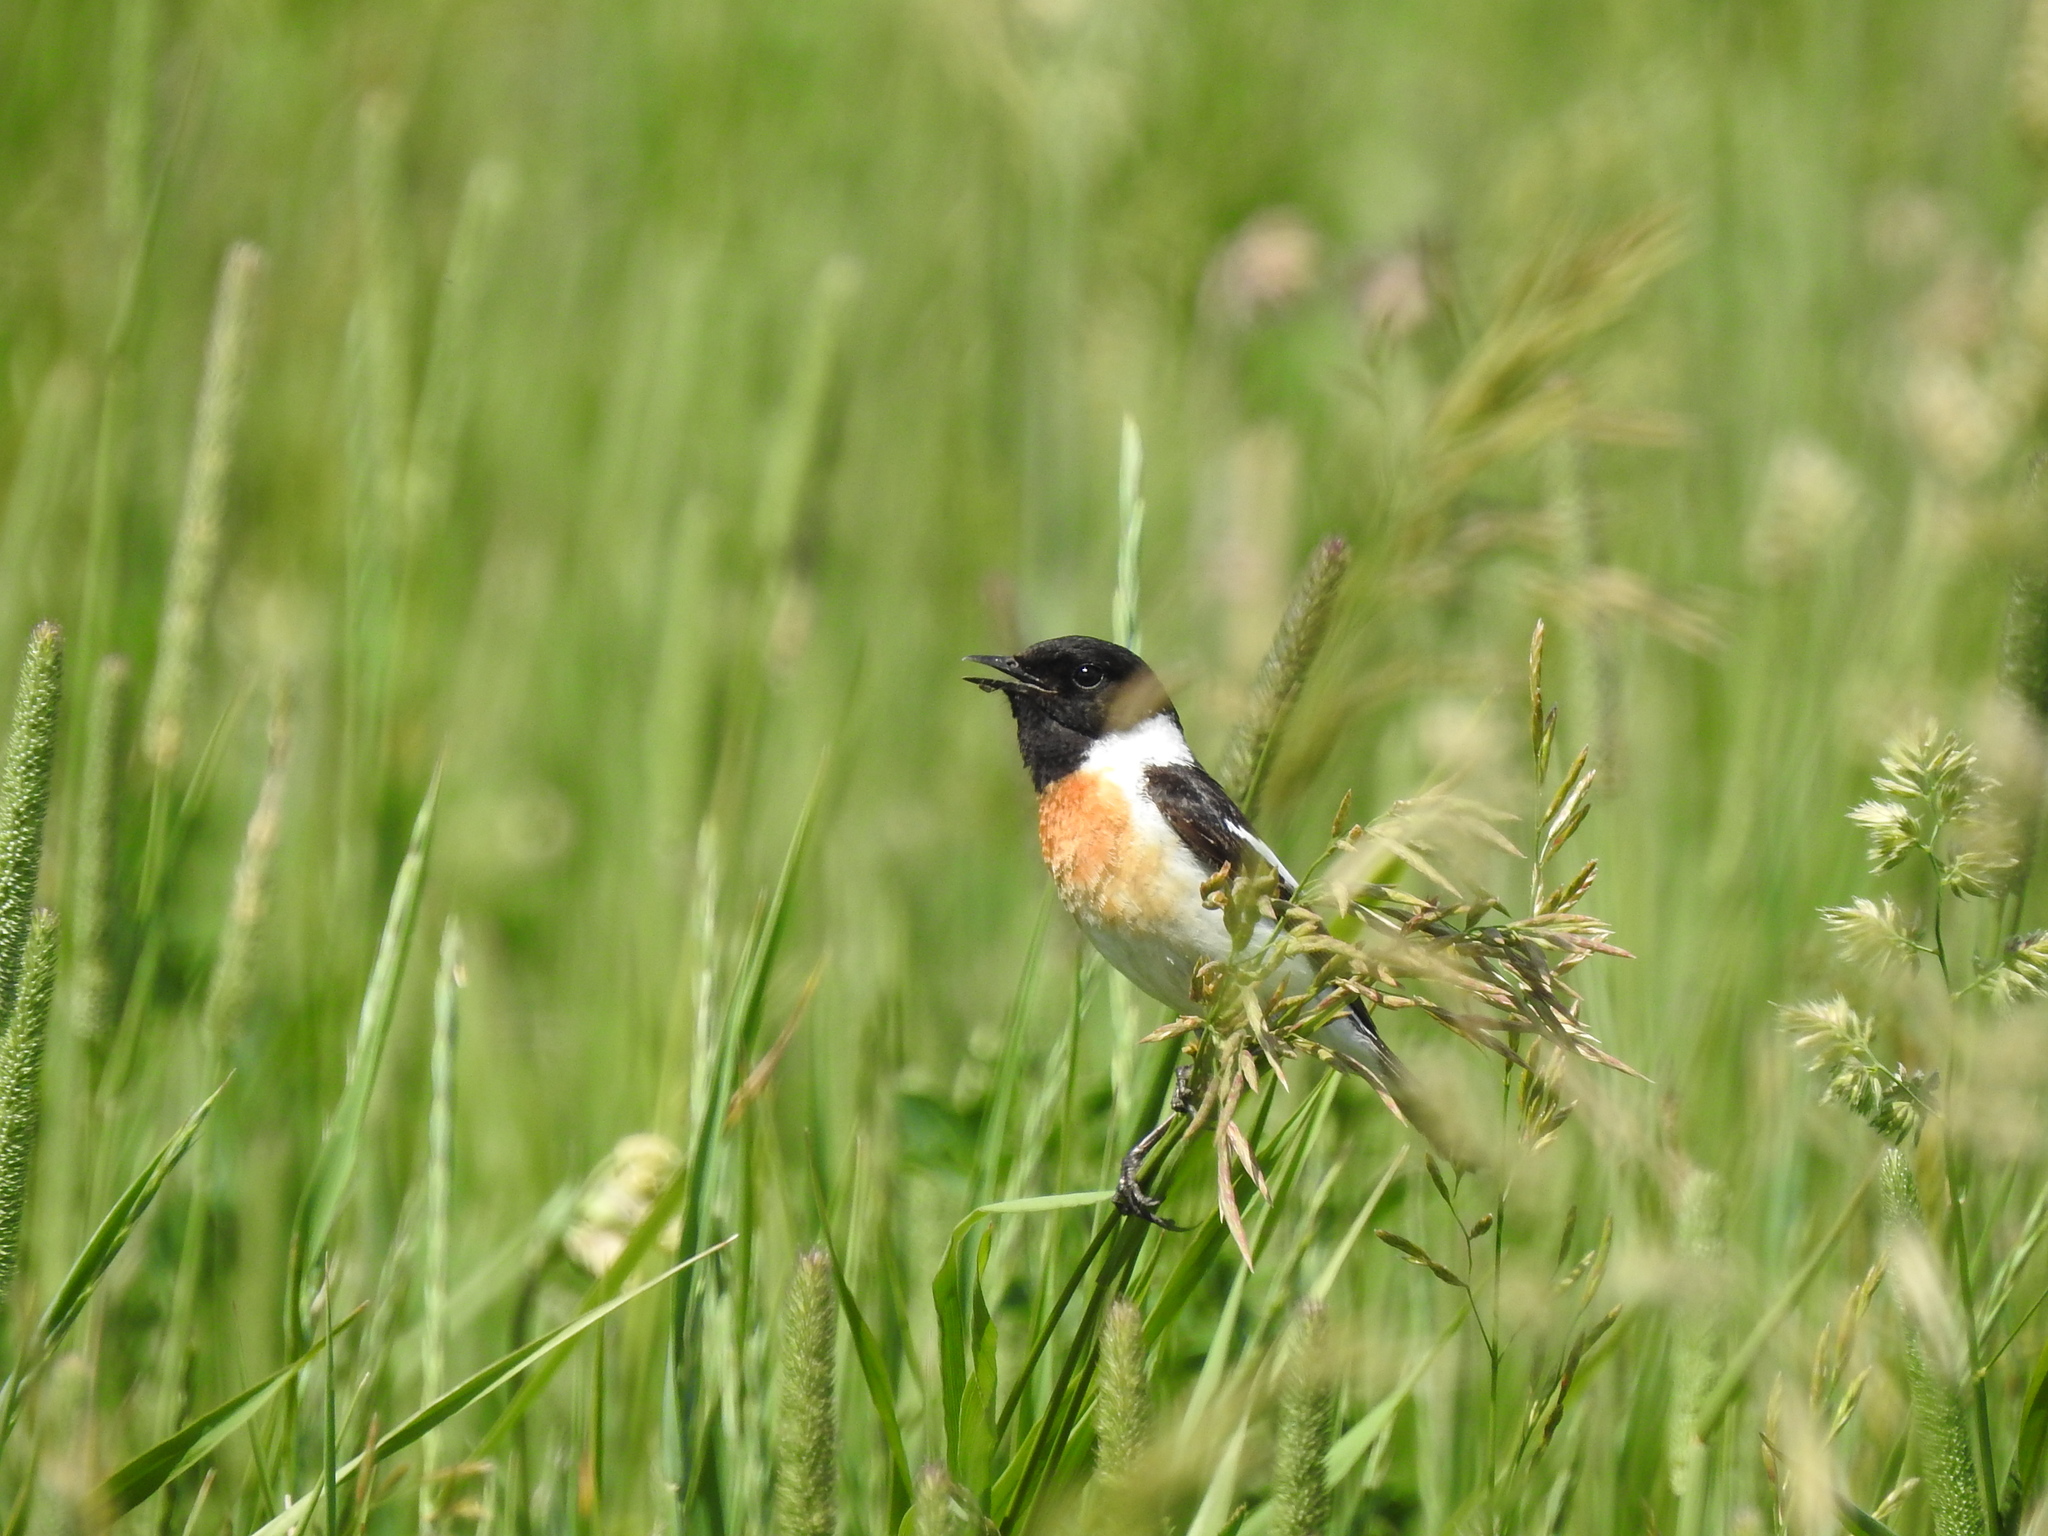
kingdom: Animalia
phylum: Chordata
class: Aves
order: Passeriformes
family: Muscicapidae
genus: Saxicola
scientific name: Saxicola maurus
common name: Siberian stonechat
